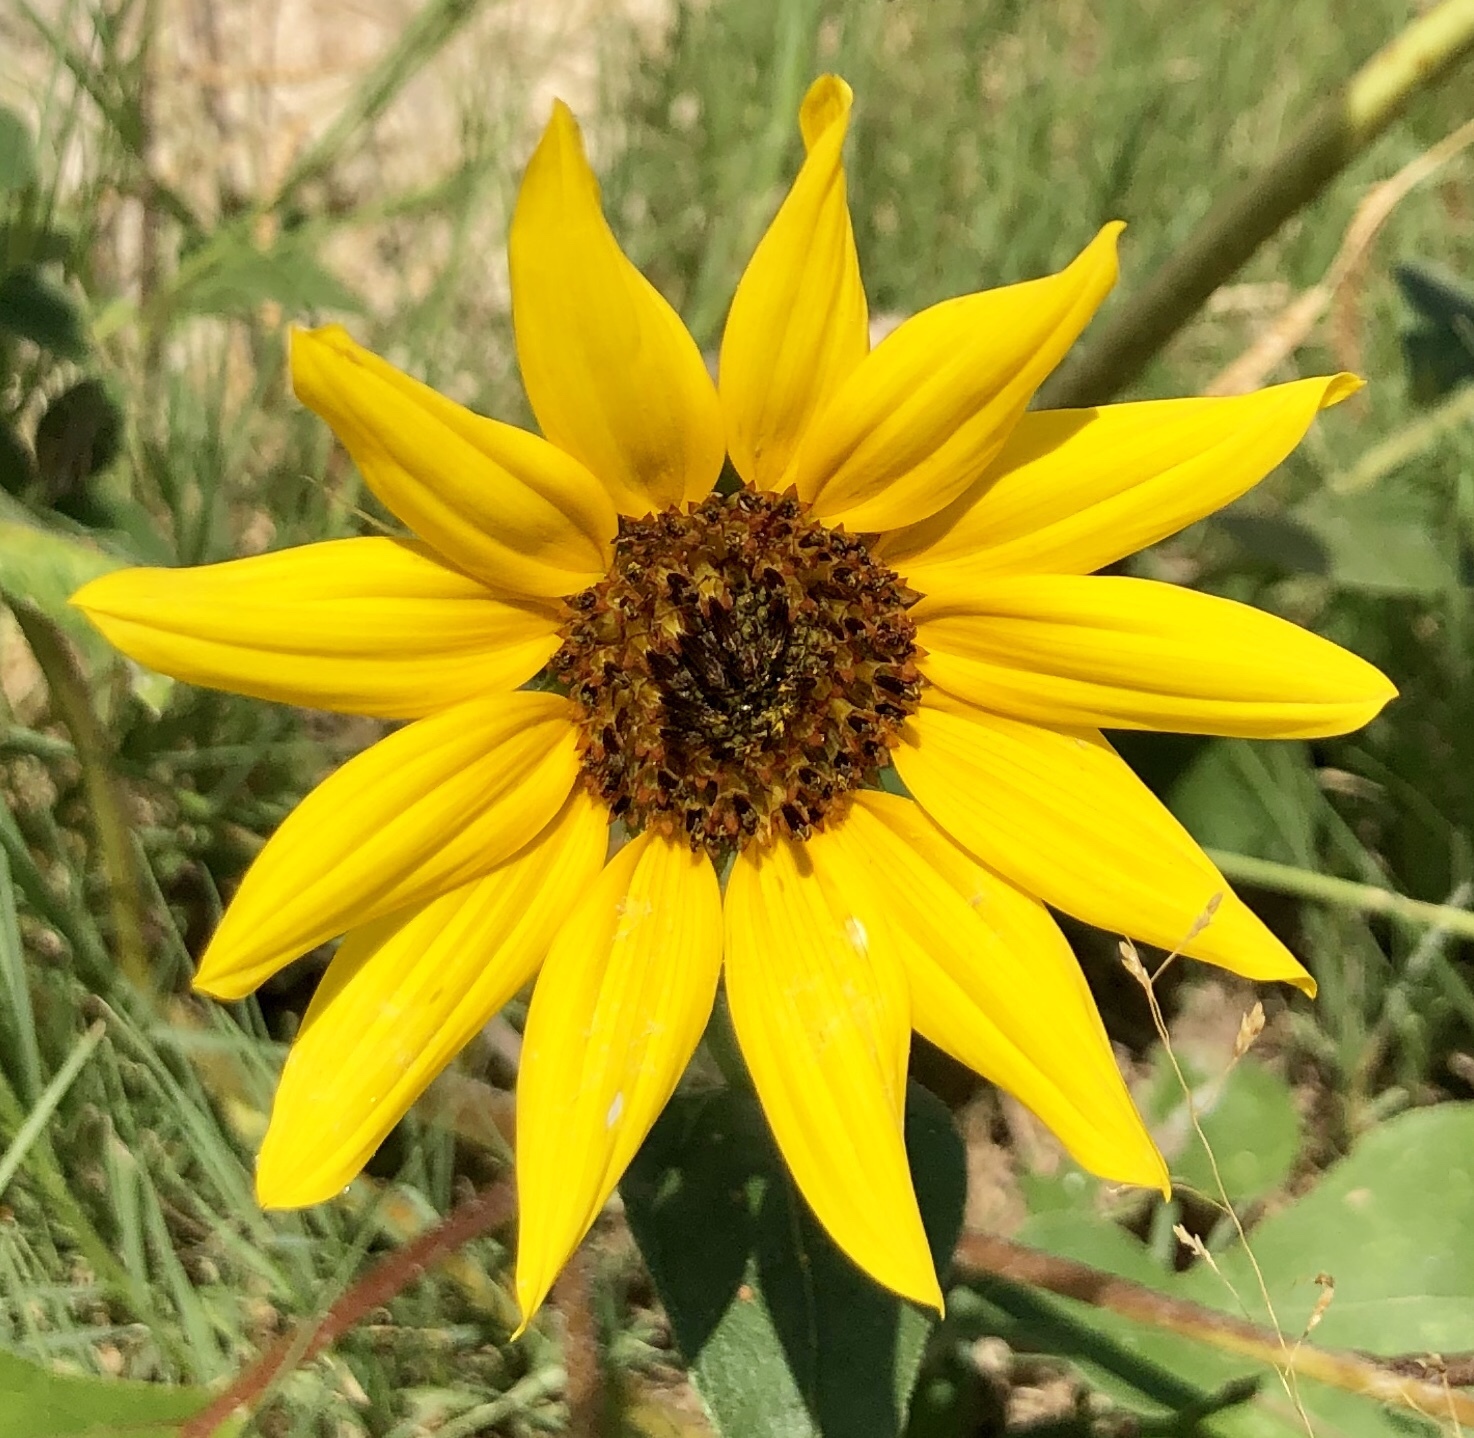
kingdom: Plantae
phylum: Tracheophyta
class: Magnoliopsida
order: Asterales
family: Asteraceae
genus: Helianthus
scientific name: Helianthus annuus
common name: Sunflower
